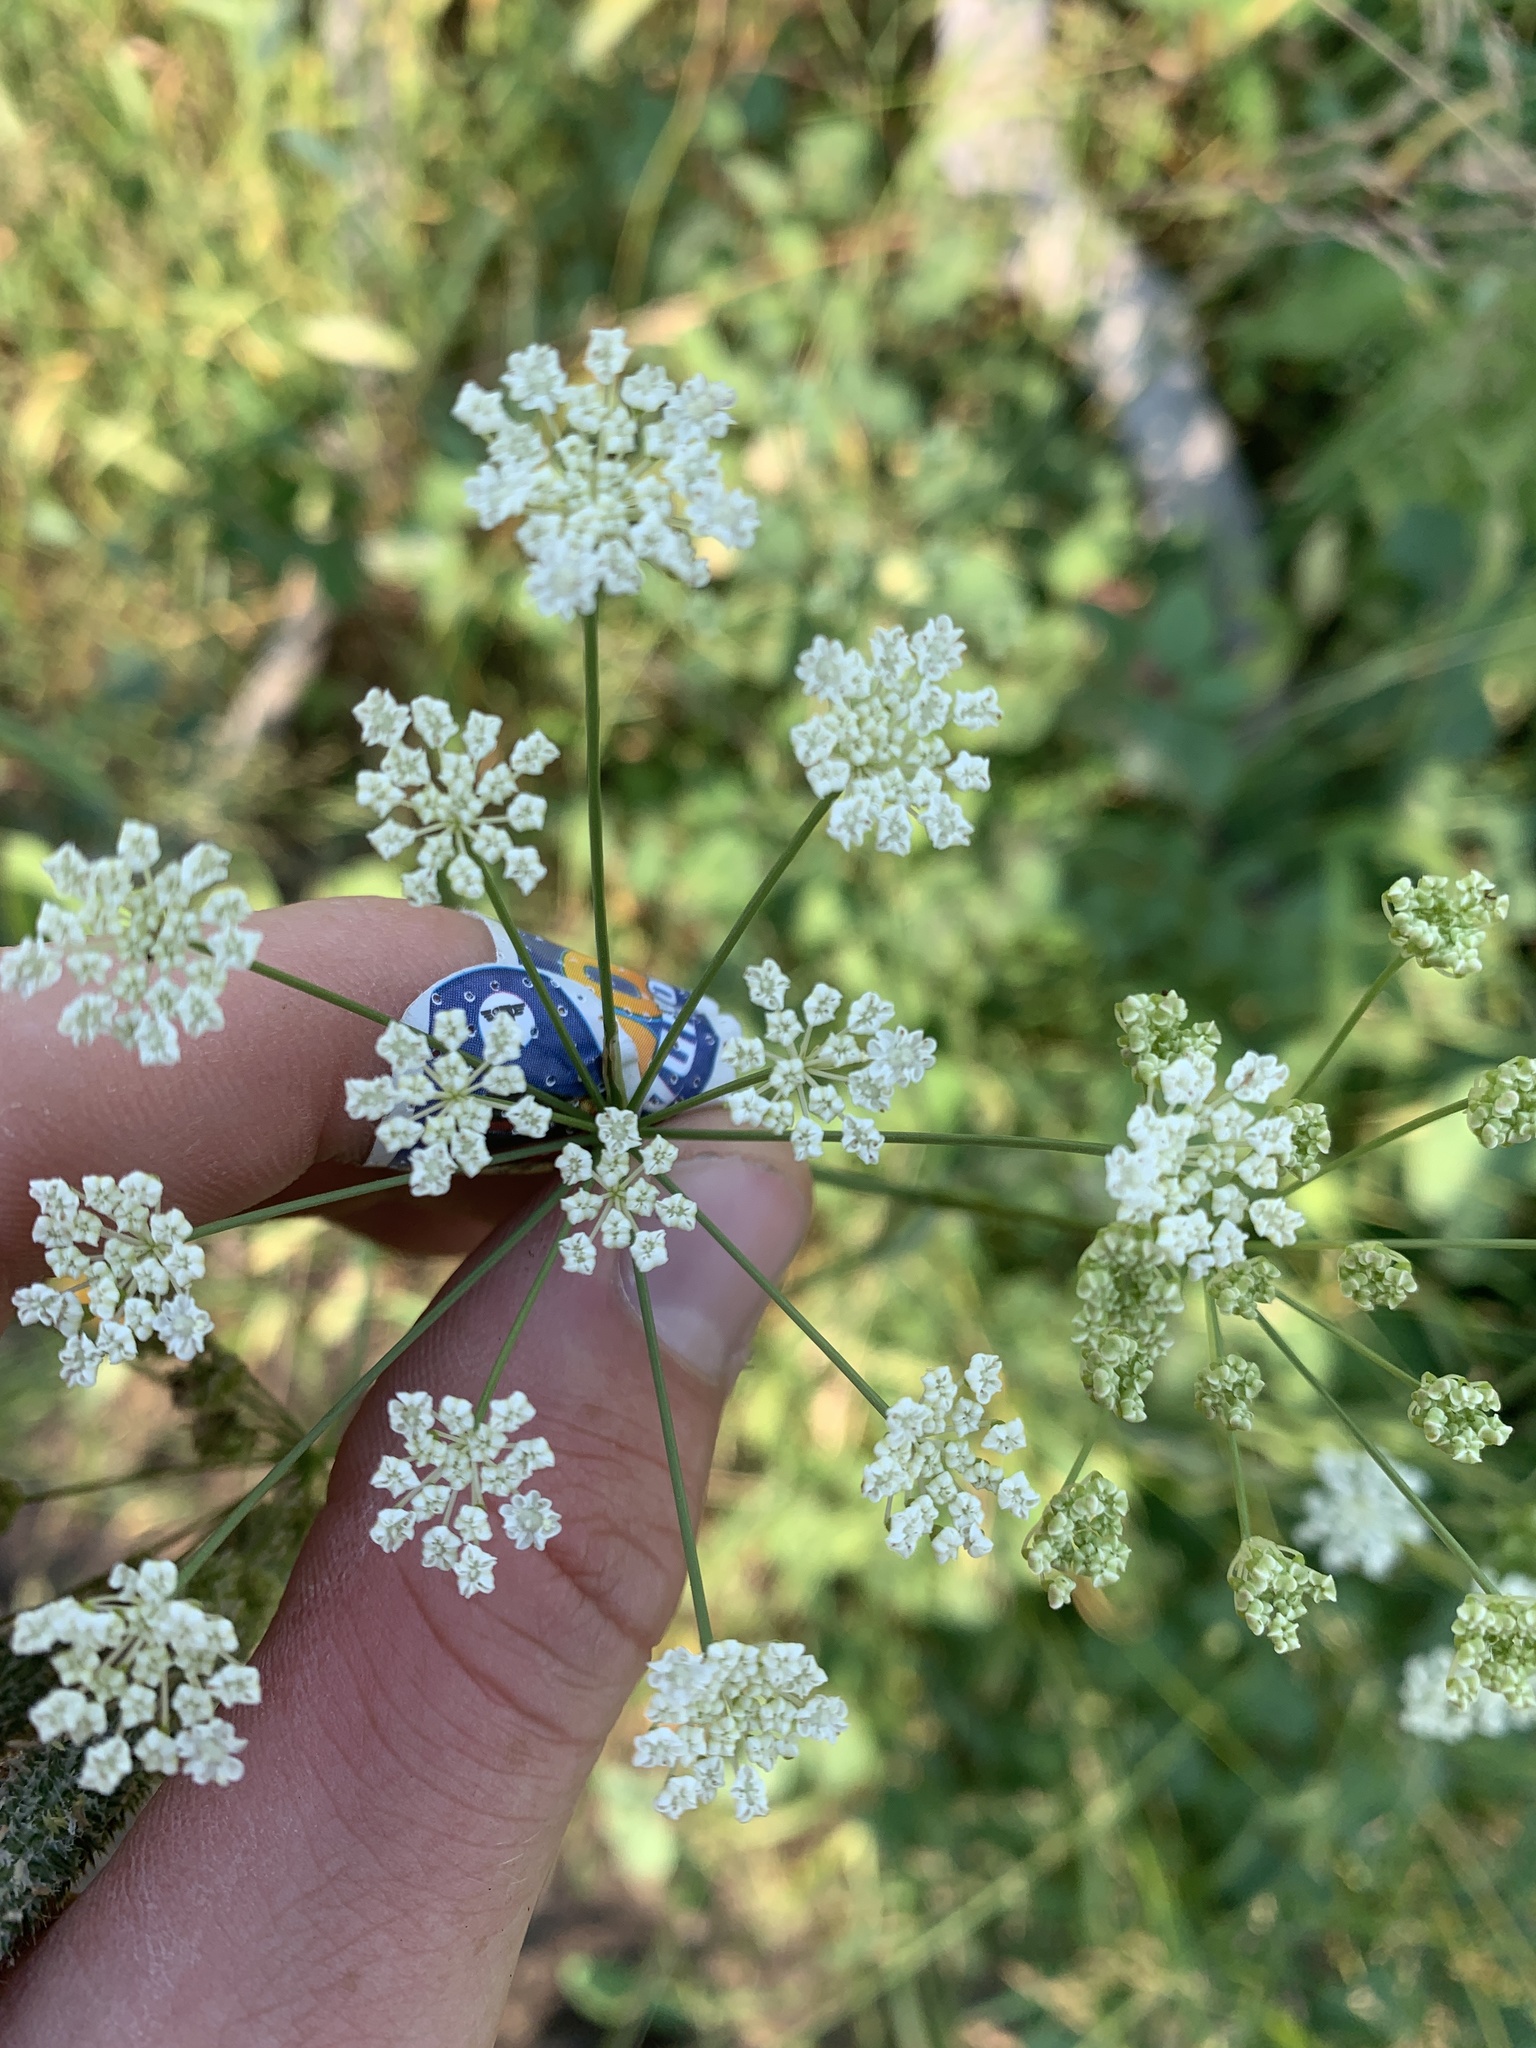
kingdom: Plantae
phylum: Tracheophyta
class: Magnoliopsida
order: Apiales
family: Apiaceae
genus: Perideridia
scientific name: Perideridia gairdneri
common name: False caraway
